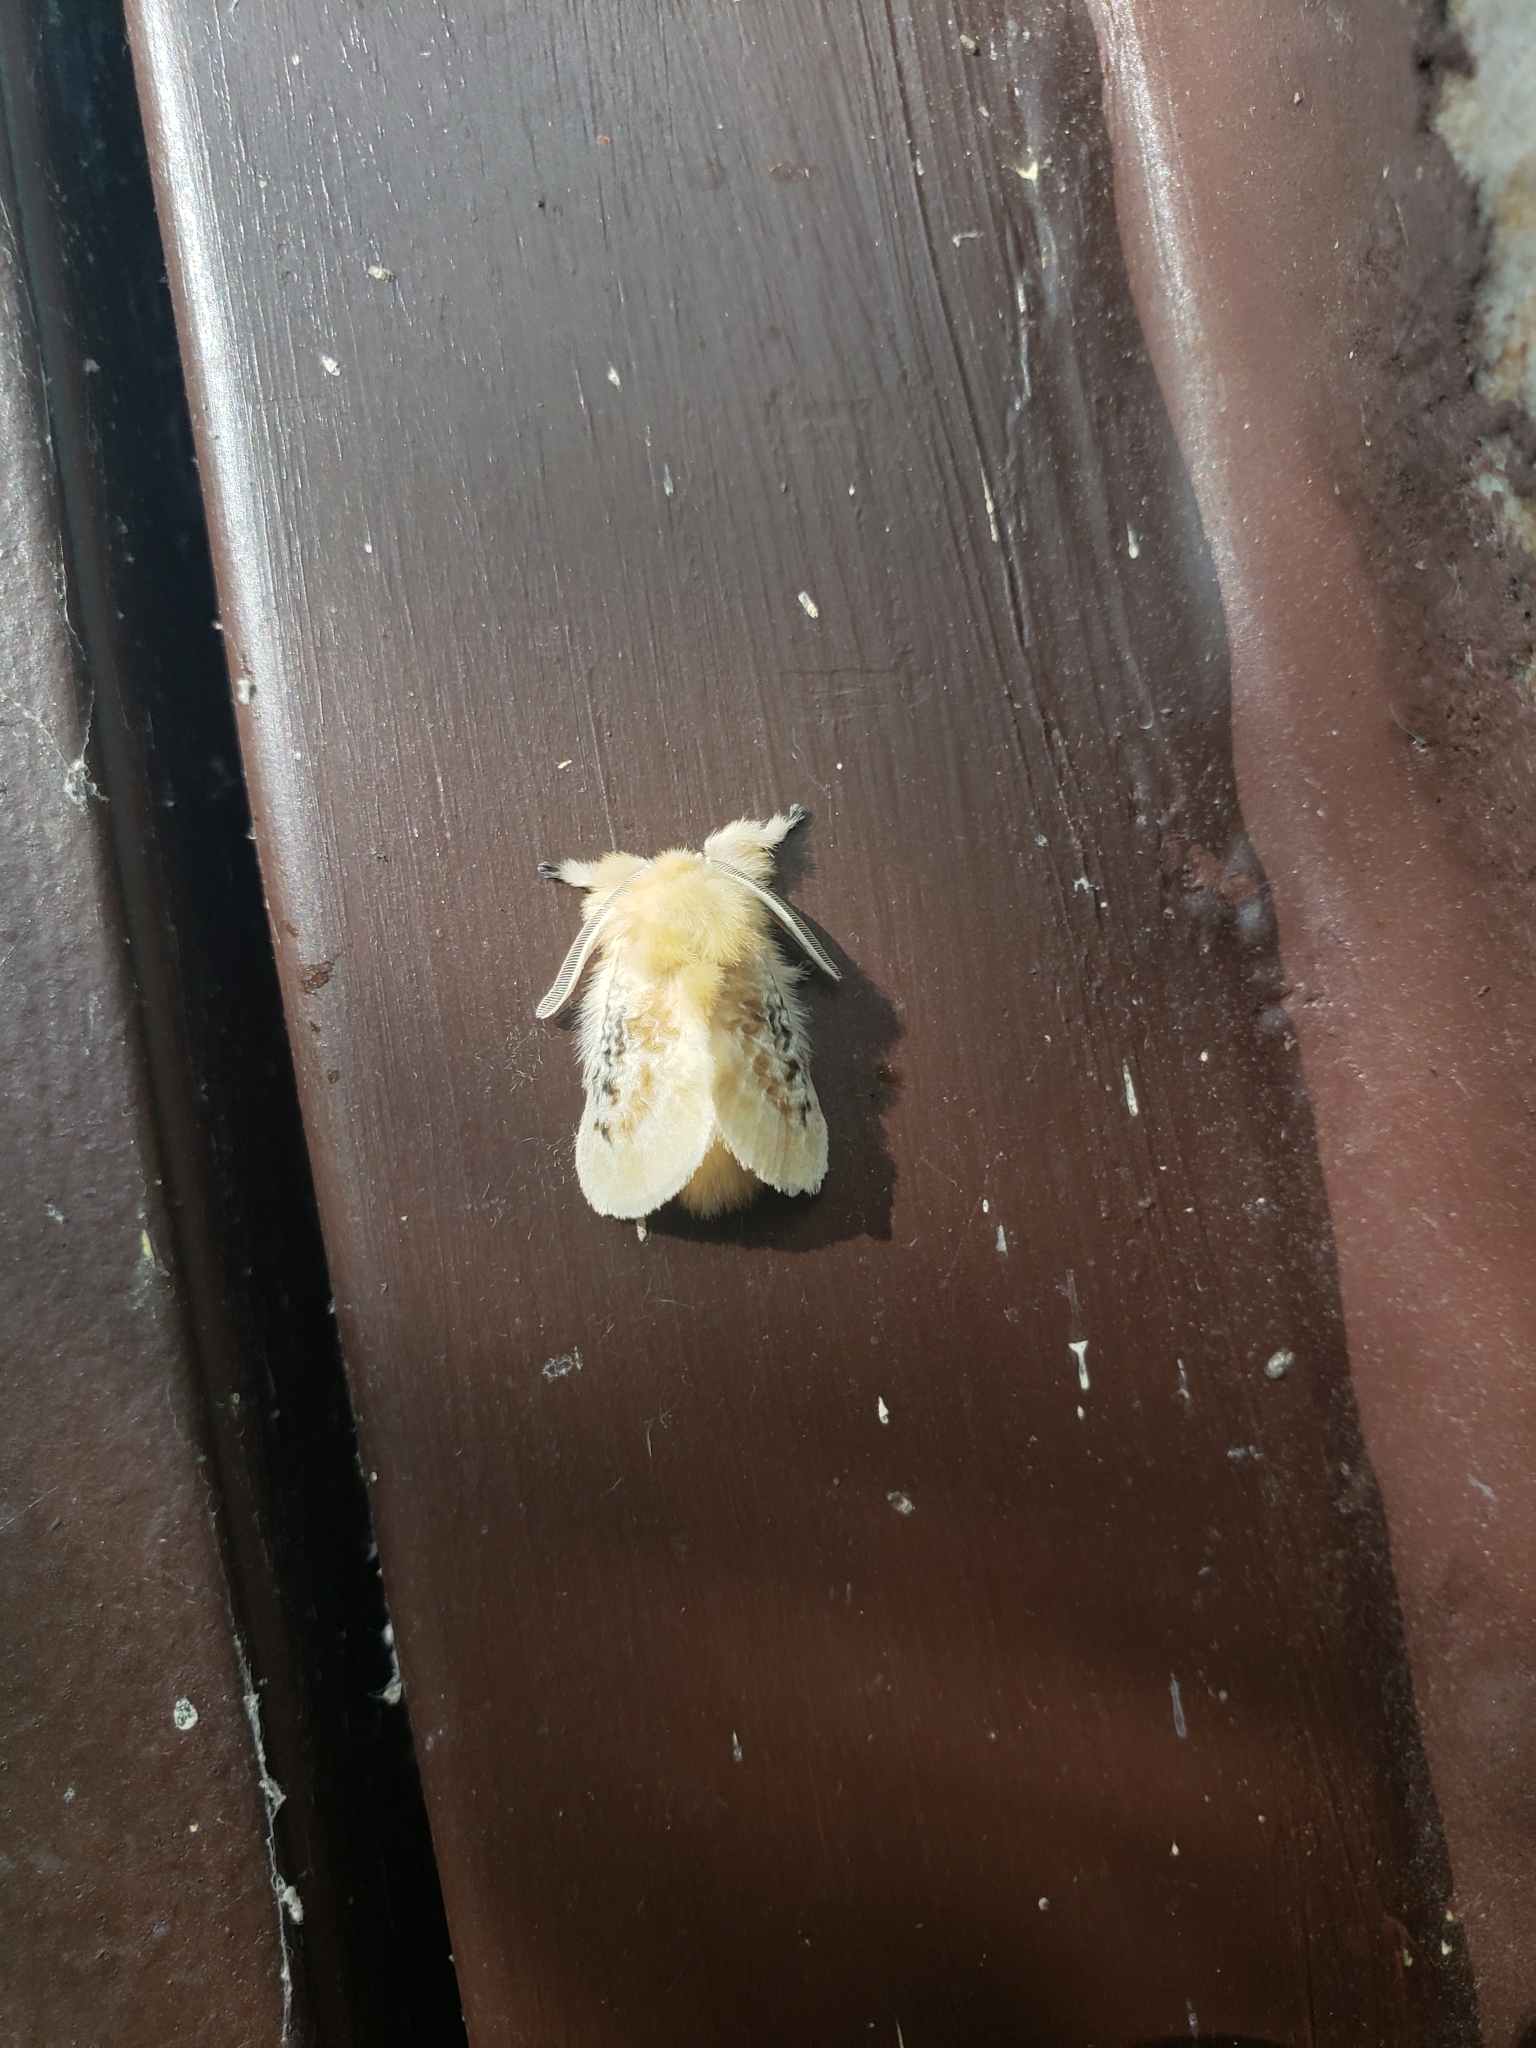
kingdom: Animalia
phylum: Arthropoda
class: Insecta
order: Lepidoptera
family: Megalopygidae
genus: Megalopyge
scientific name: Megalopyge crispata
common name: Black-waved flannel moth
